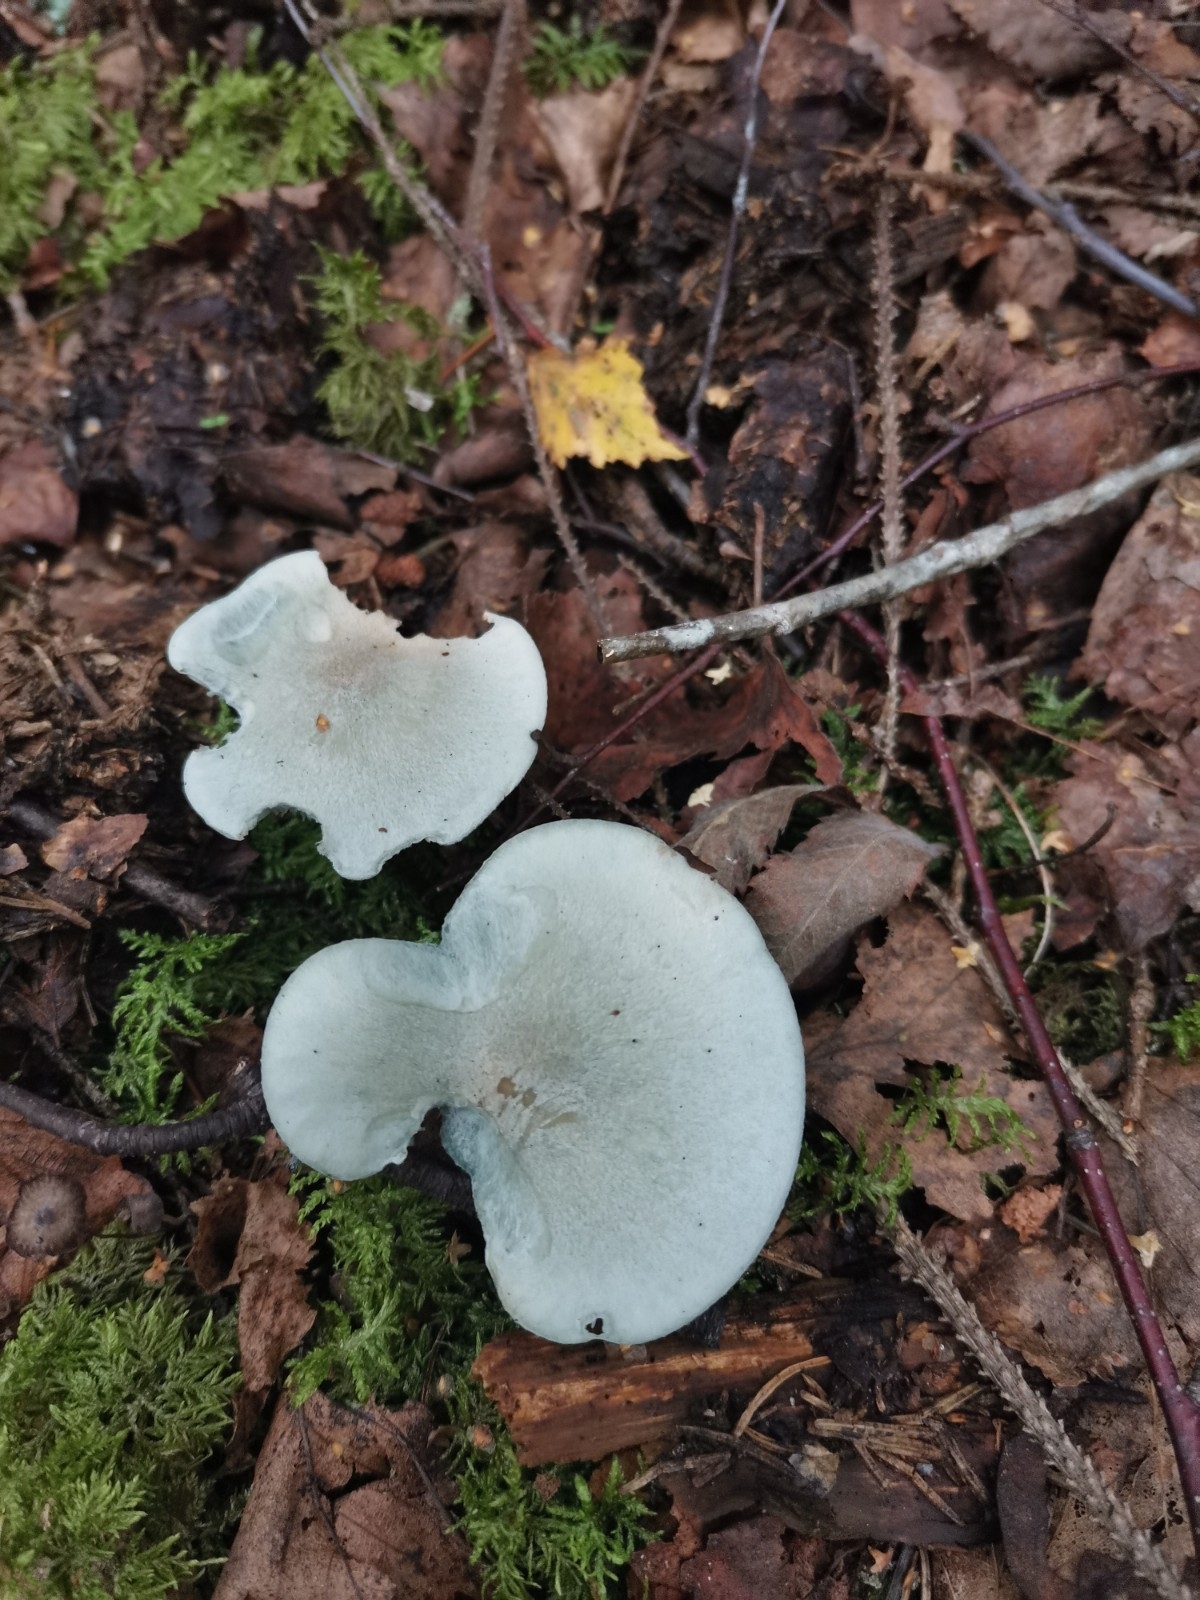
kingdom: Fungi
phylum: Basidiomycota
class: Agaricomycetes
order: Agaricales
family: Tricholomataceae
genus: Collybia
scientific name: Collybia
